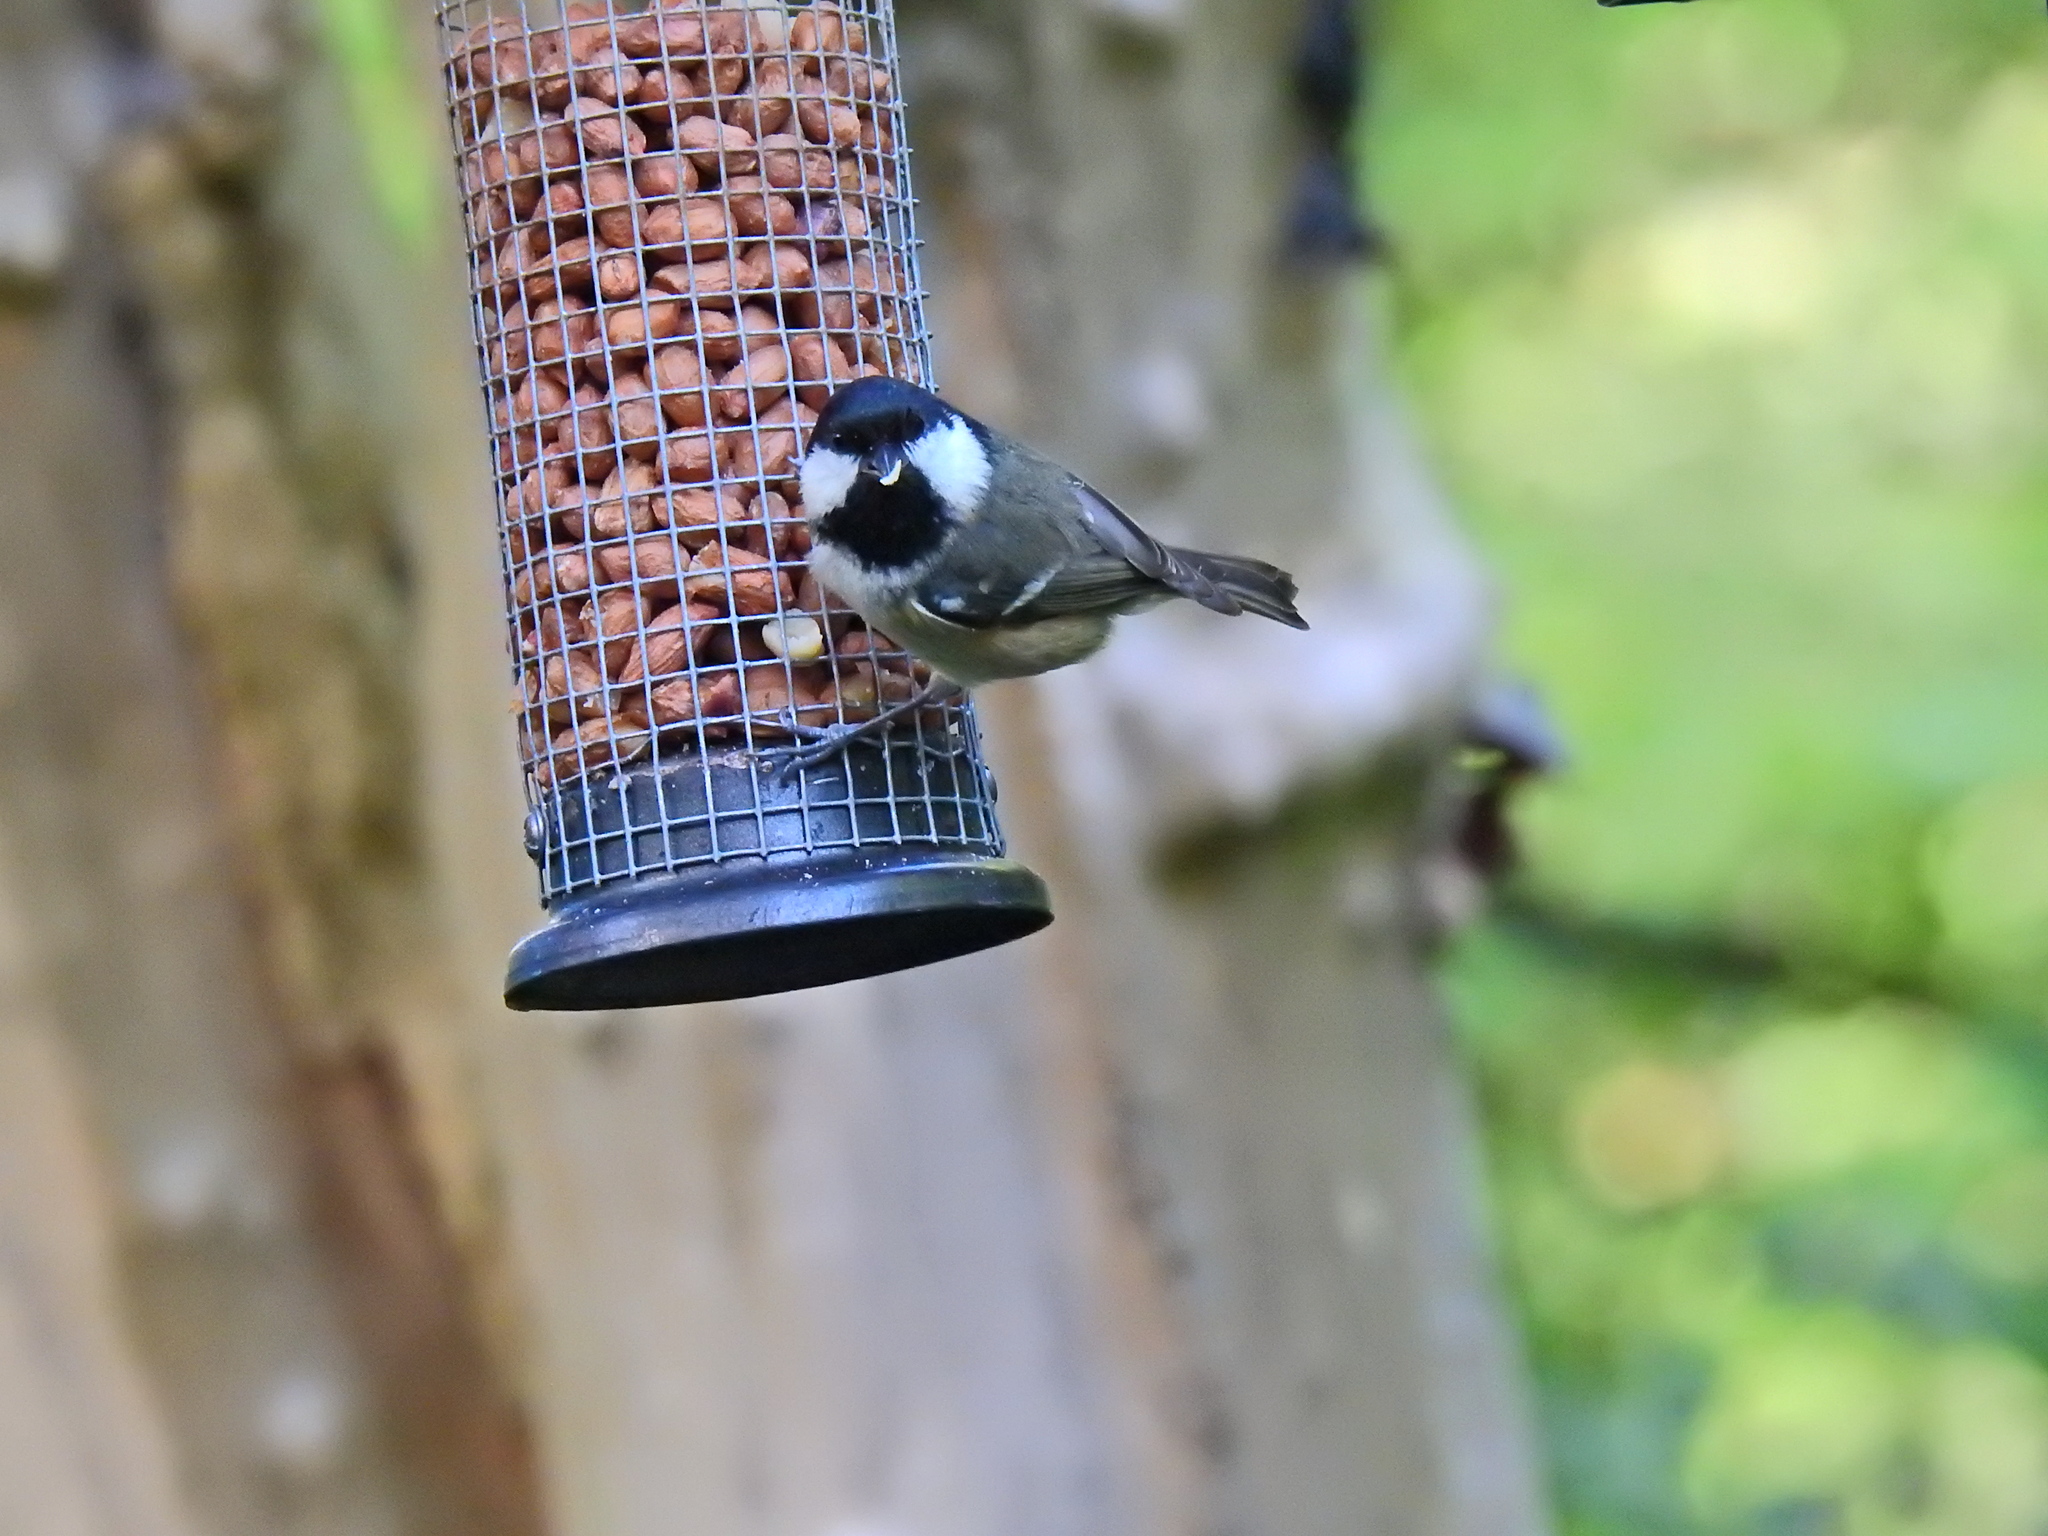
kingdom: Animalia
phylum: Chordata
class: Aves
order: Passeriformes
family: Paridae
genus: Periparus
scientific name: Periparus ater
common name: Coal tit
